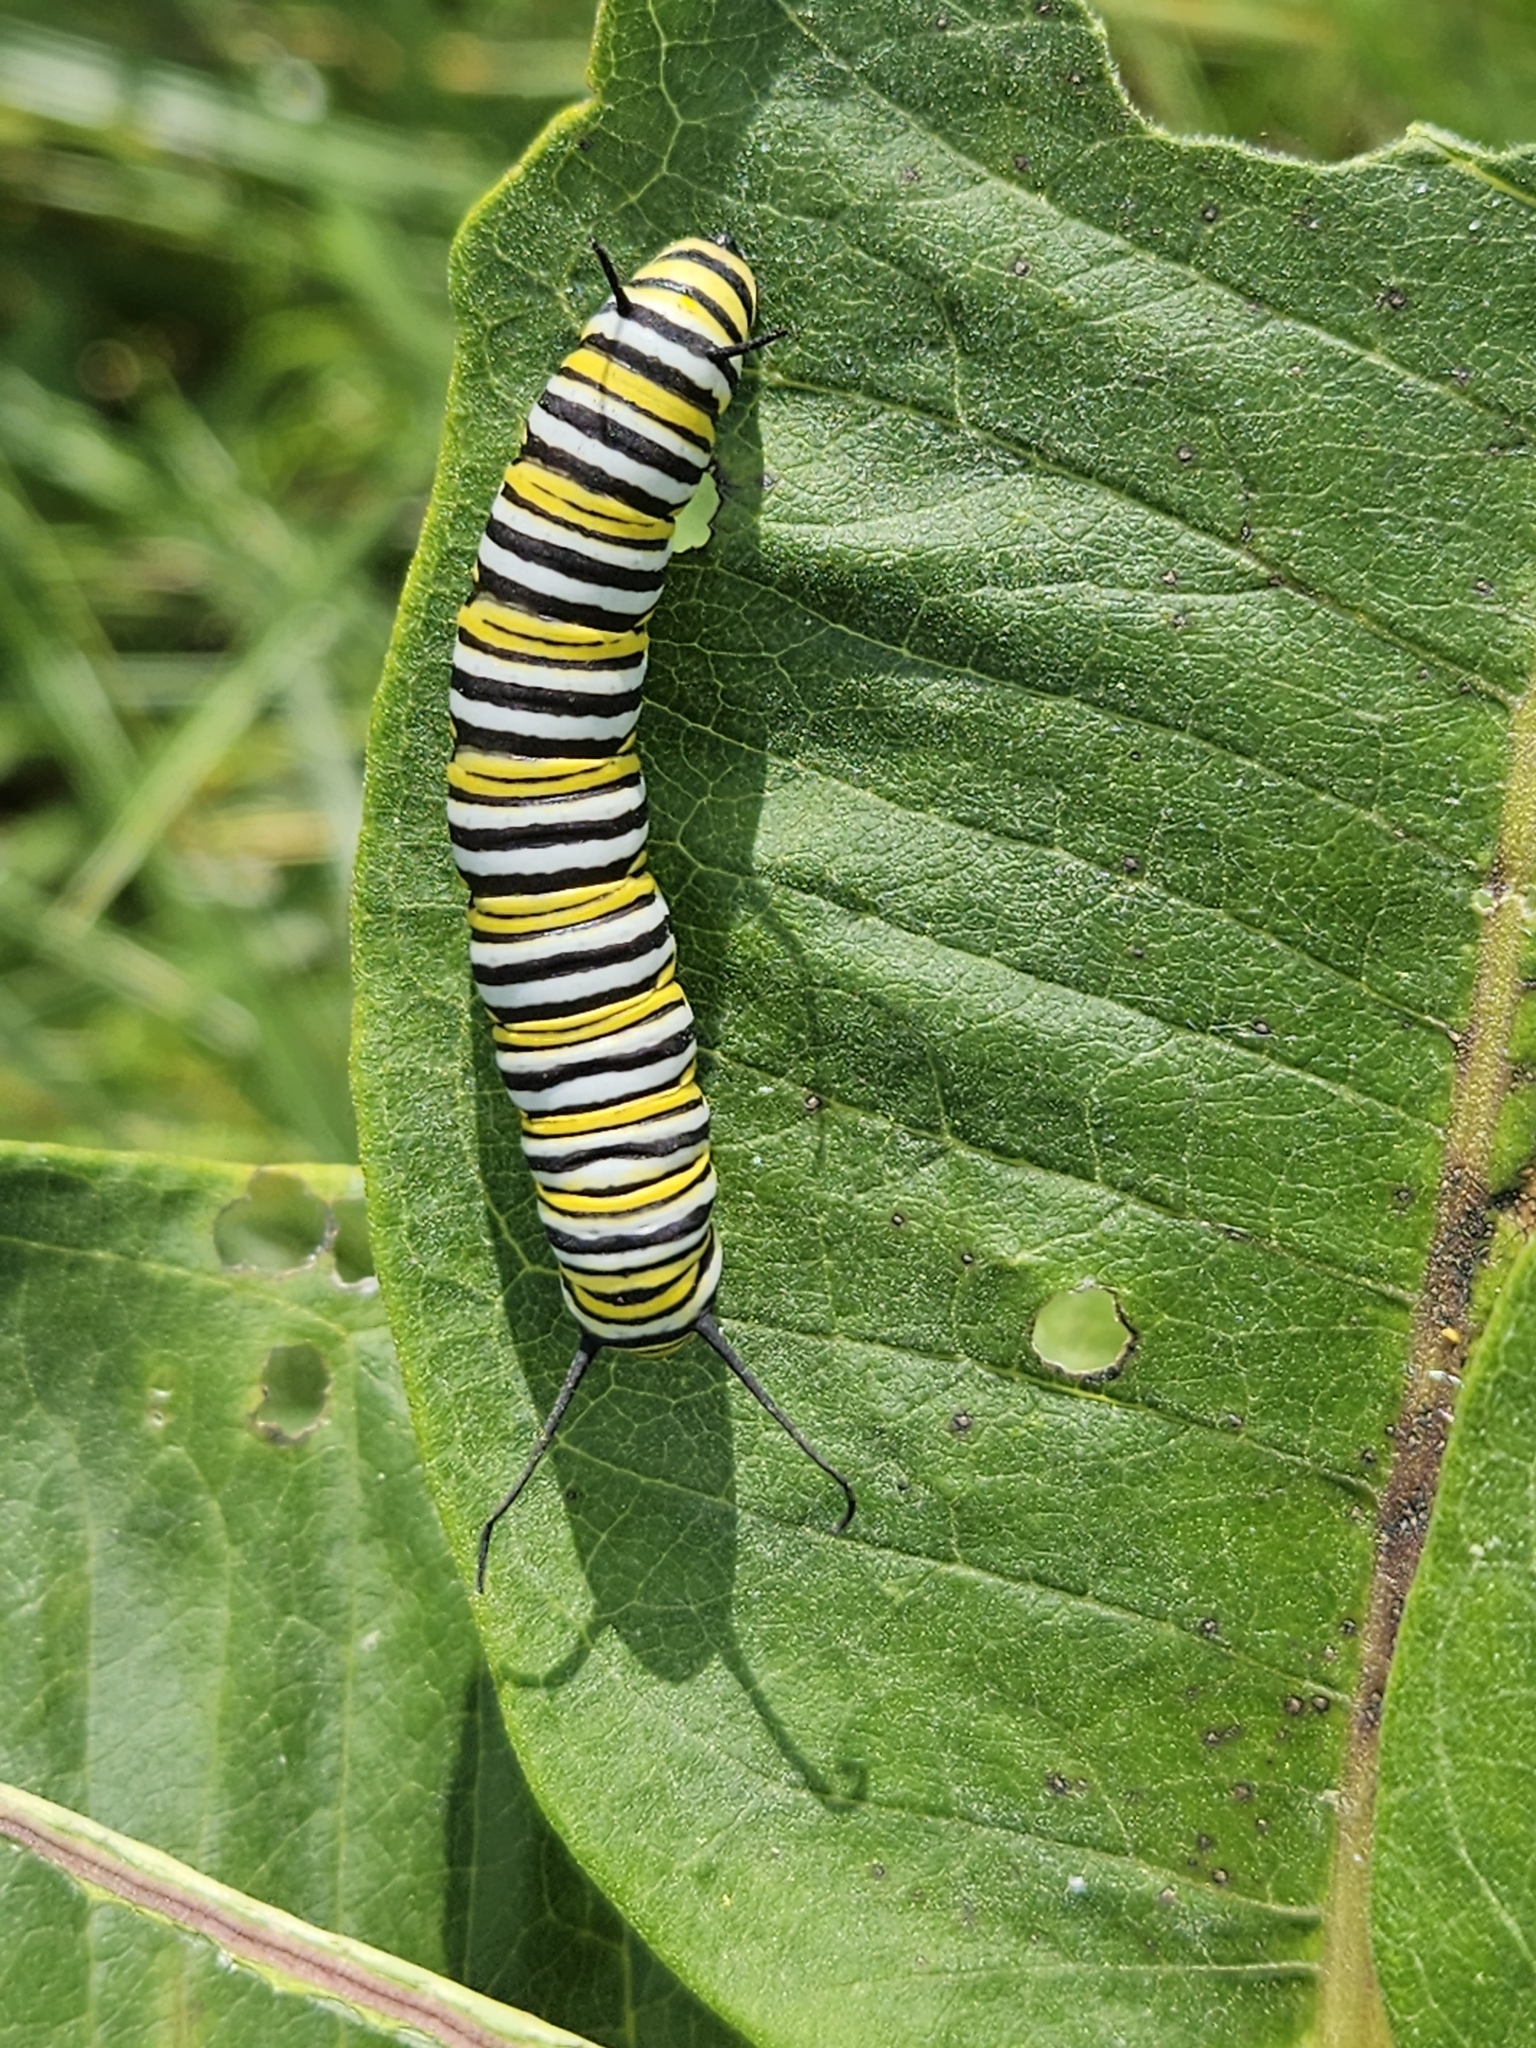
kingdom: Animalia
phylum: Arthropoda
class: Insecta
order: Lepidoptera
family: Nymphalidae
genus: Danaus
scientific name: Danaus plexippus
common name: Monarch
